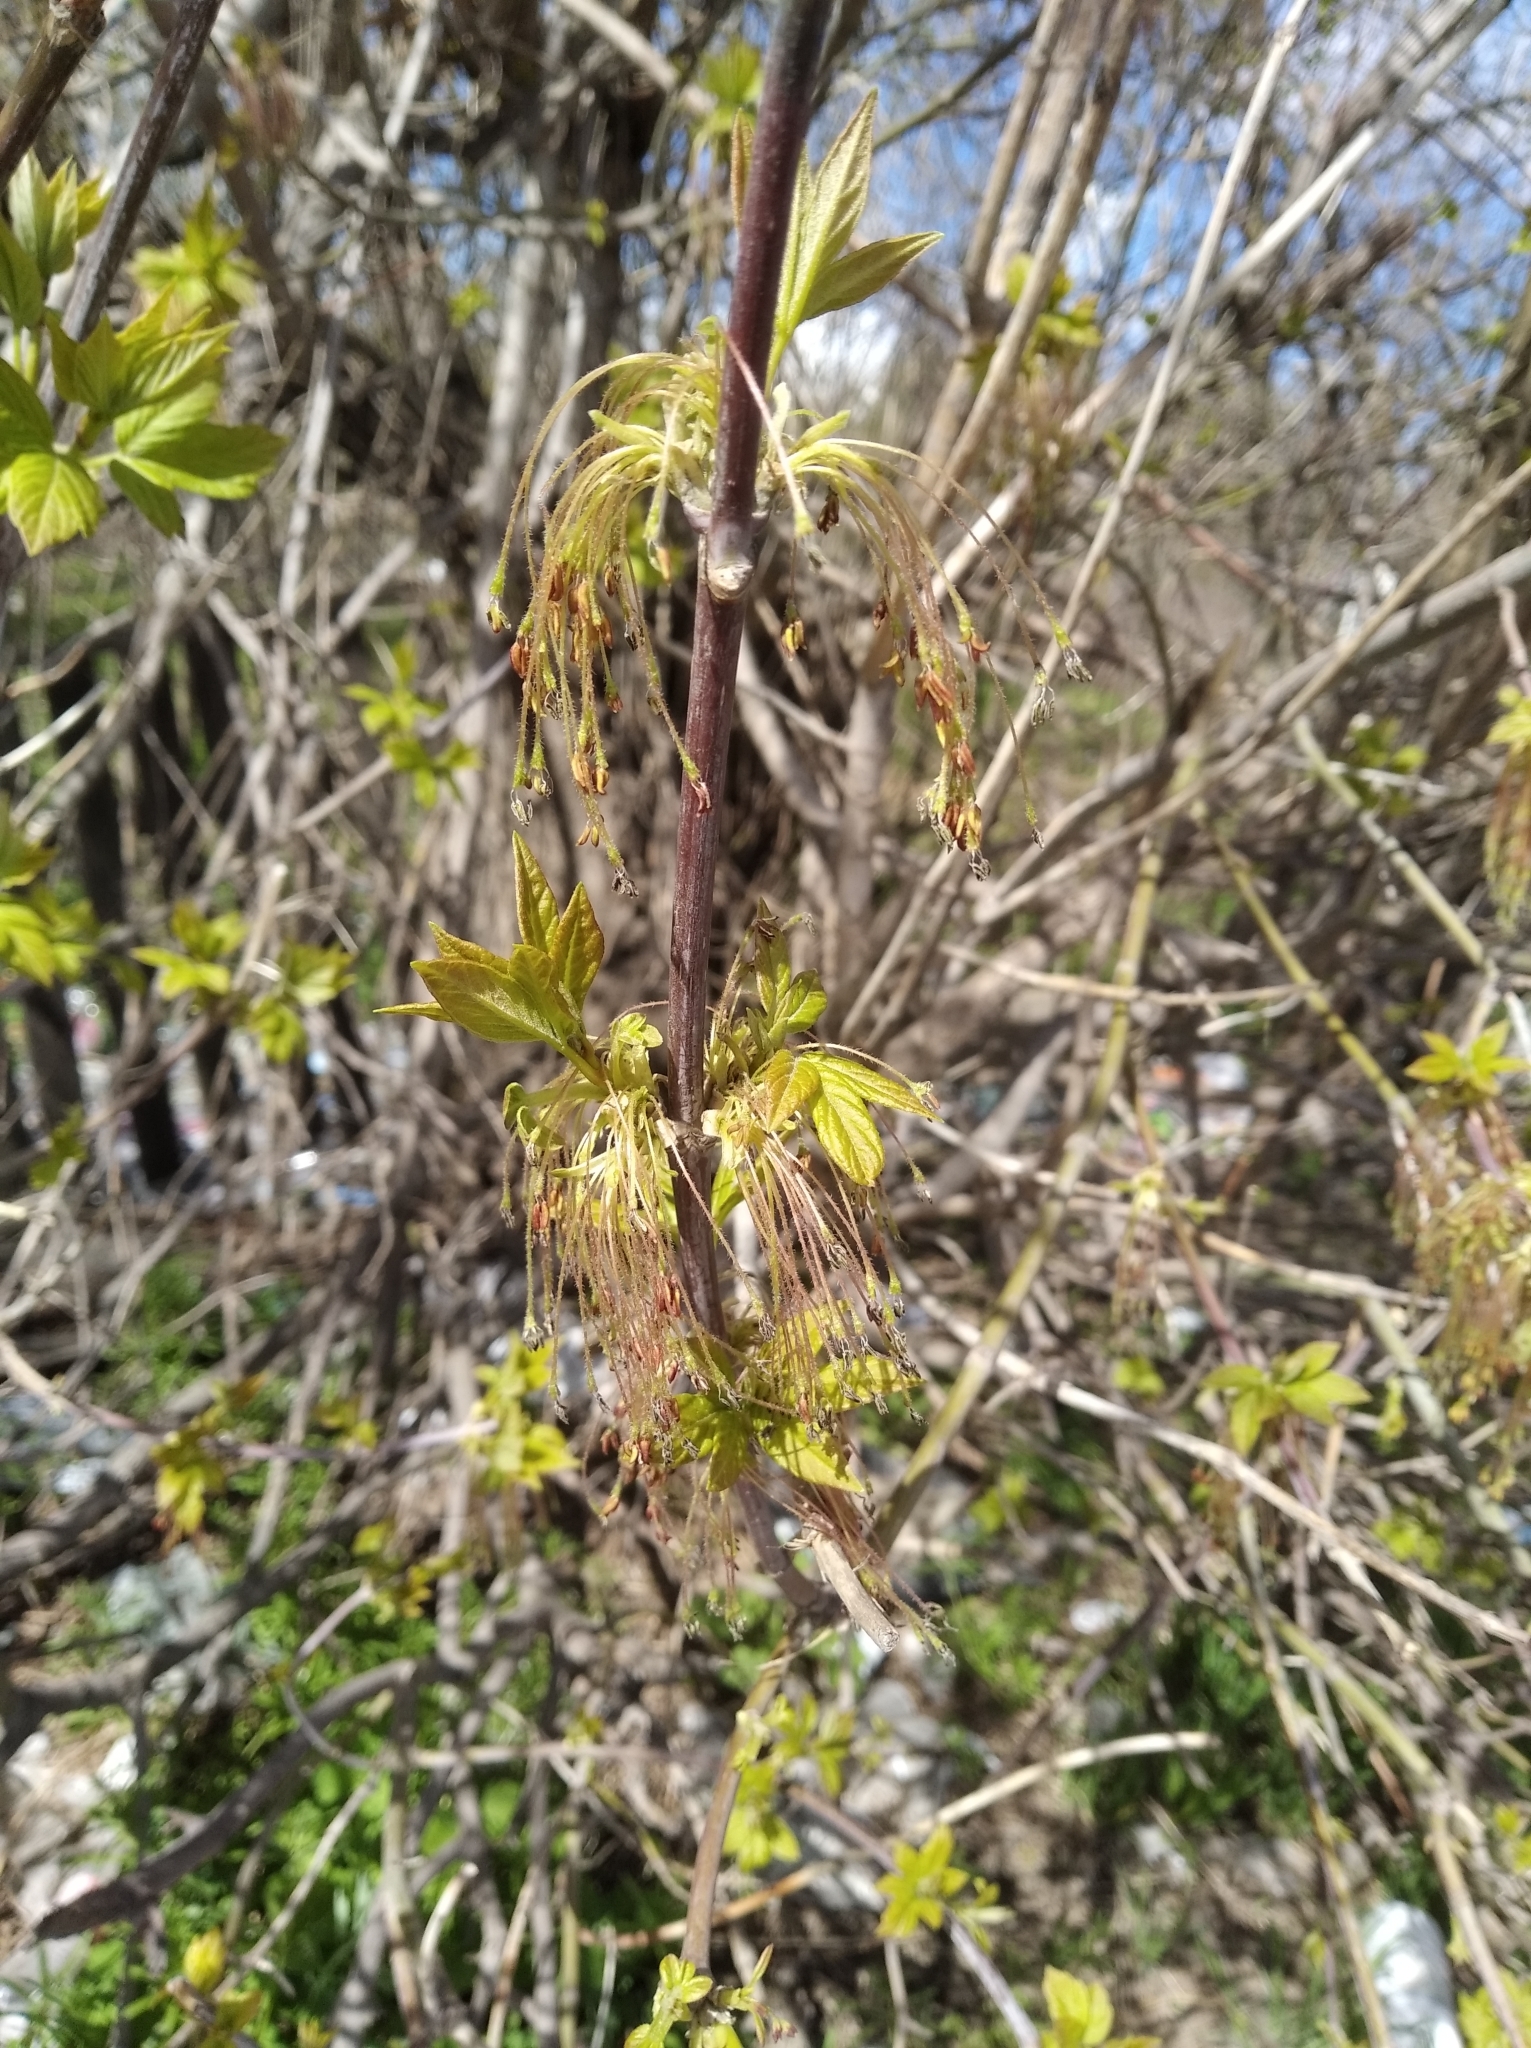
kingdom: Plantae
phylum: Tracheophyta
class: Magnoliopsida
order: Sapindales
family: Sapindaceae
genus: Acer
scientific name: Acer negundo
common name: Ashleaf maple
